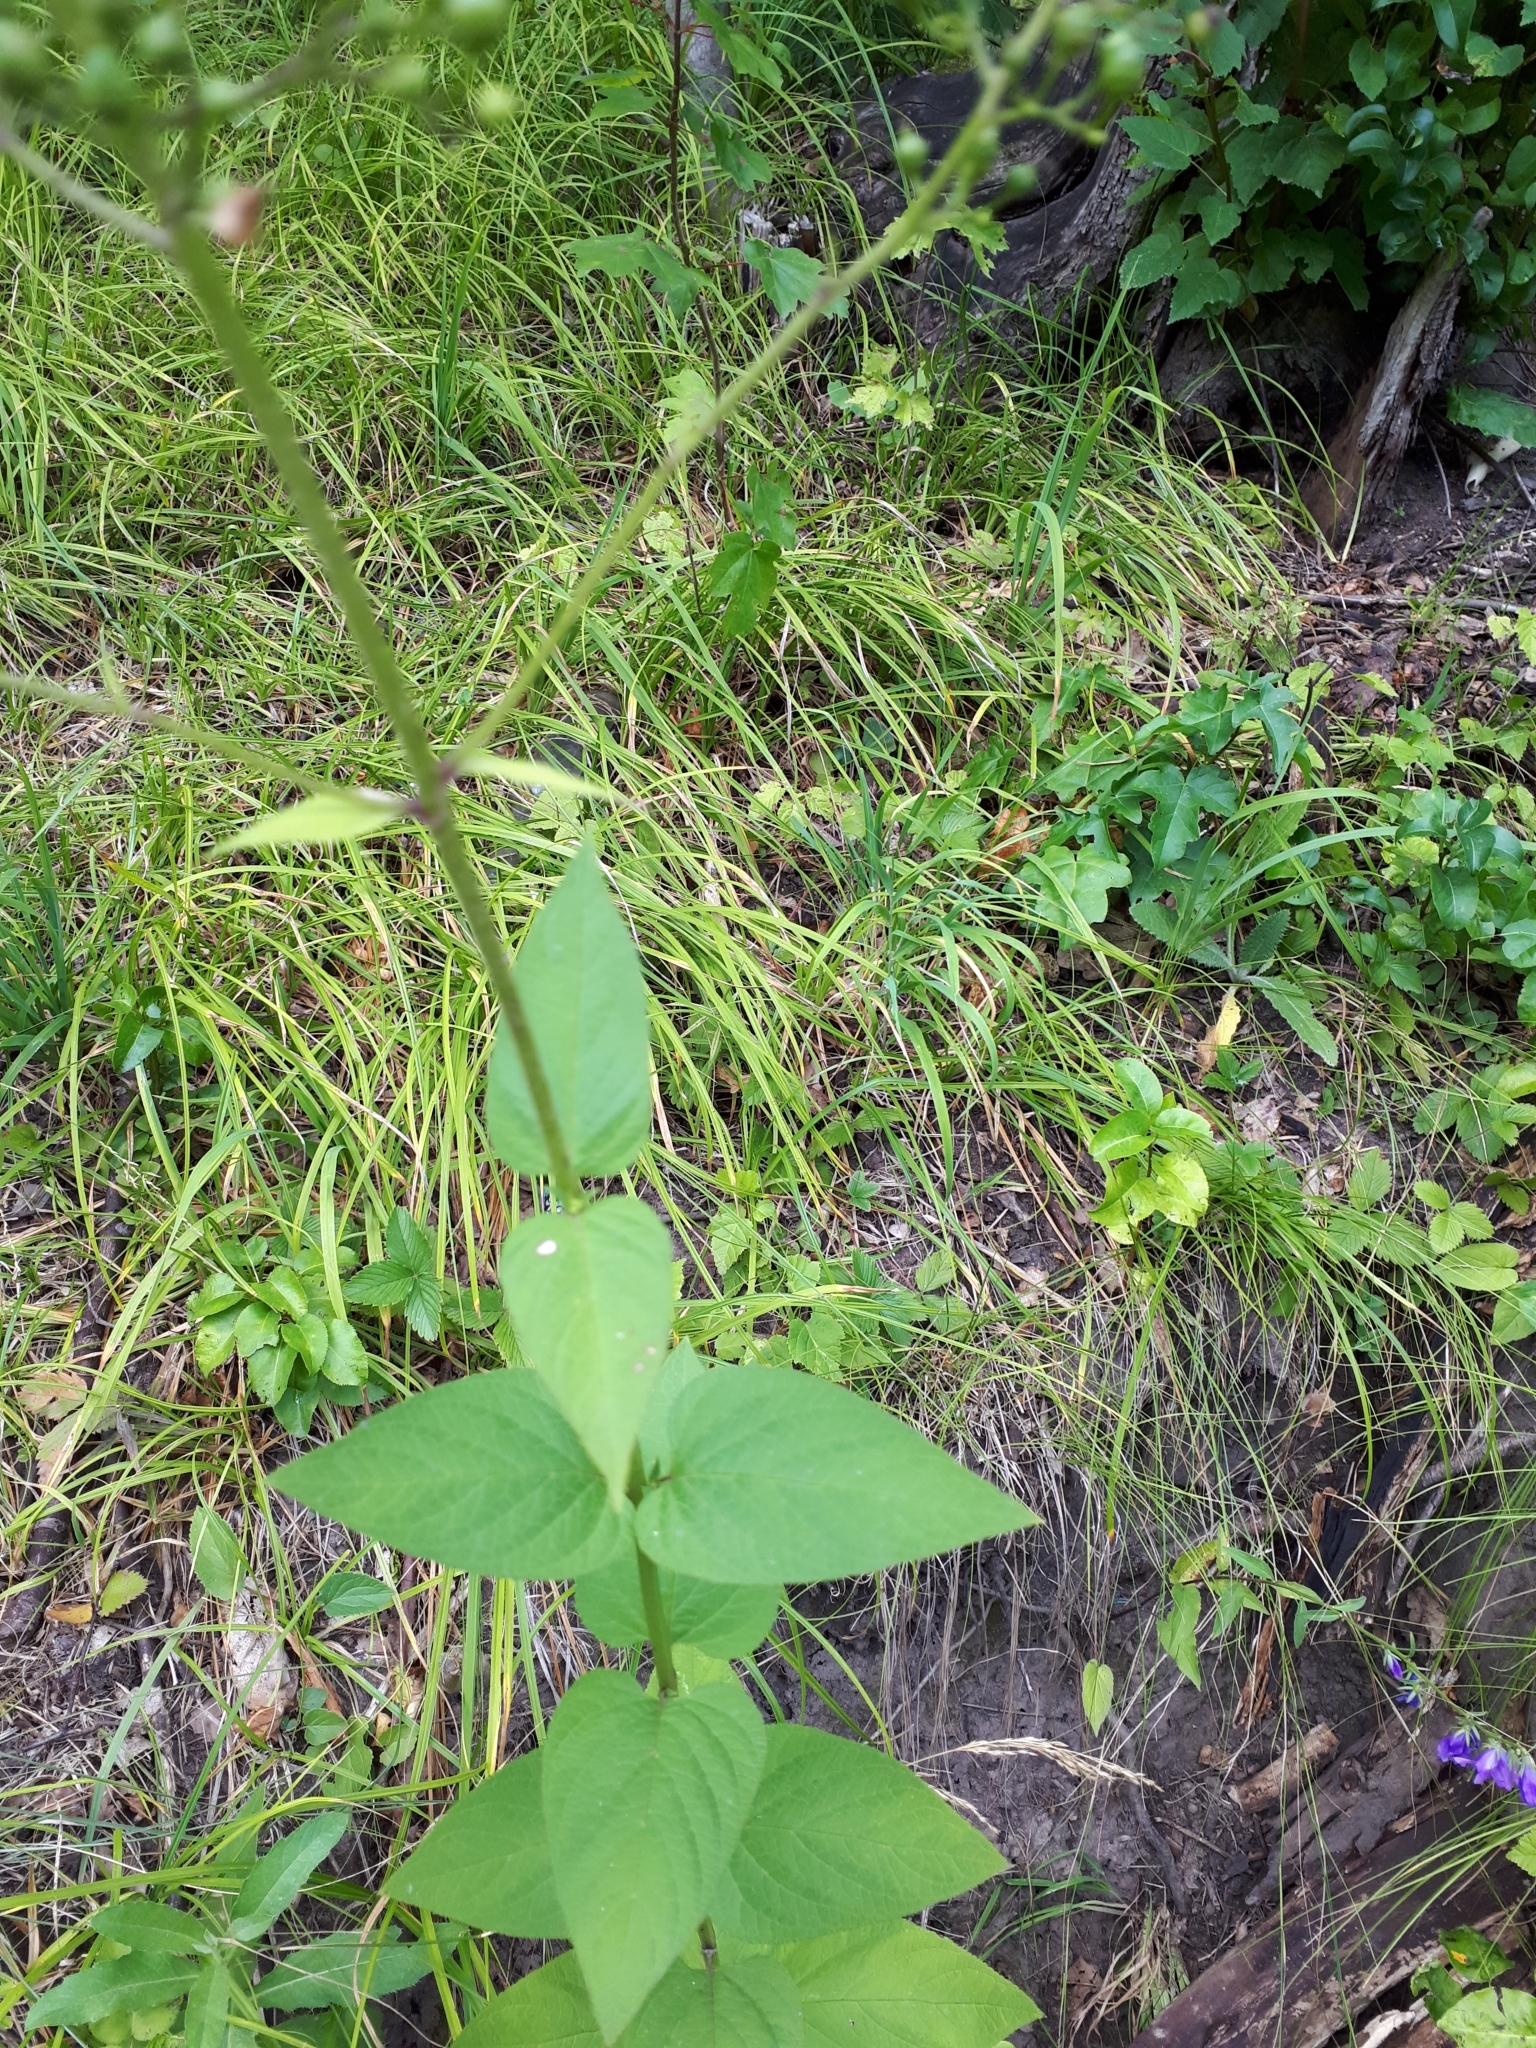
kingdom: Plantae
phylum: Tracheophyta
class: Magnoliopsida
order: Lamiales
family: Scrophulariaceae
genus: Scrophularia
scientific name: Scrophularia nodosa
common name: Common figwort
